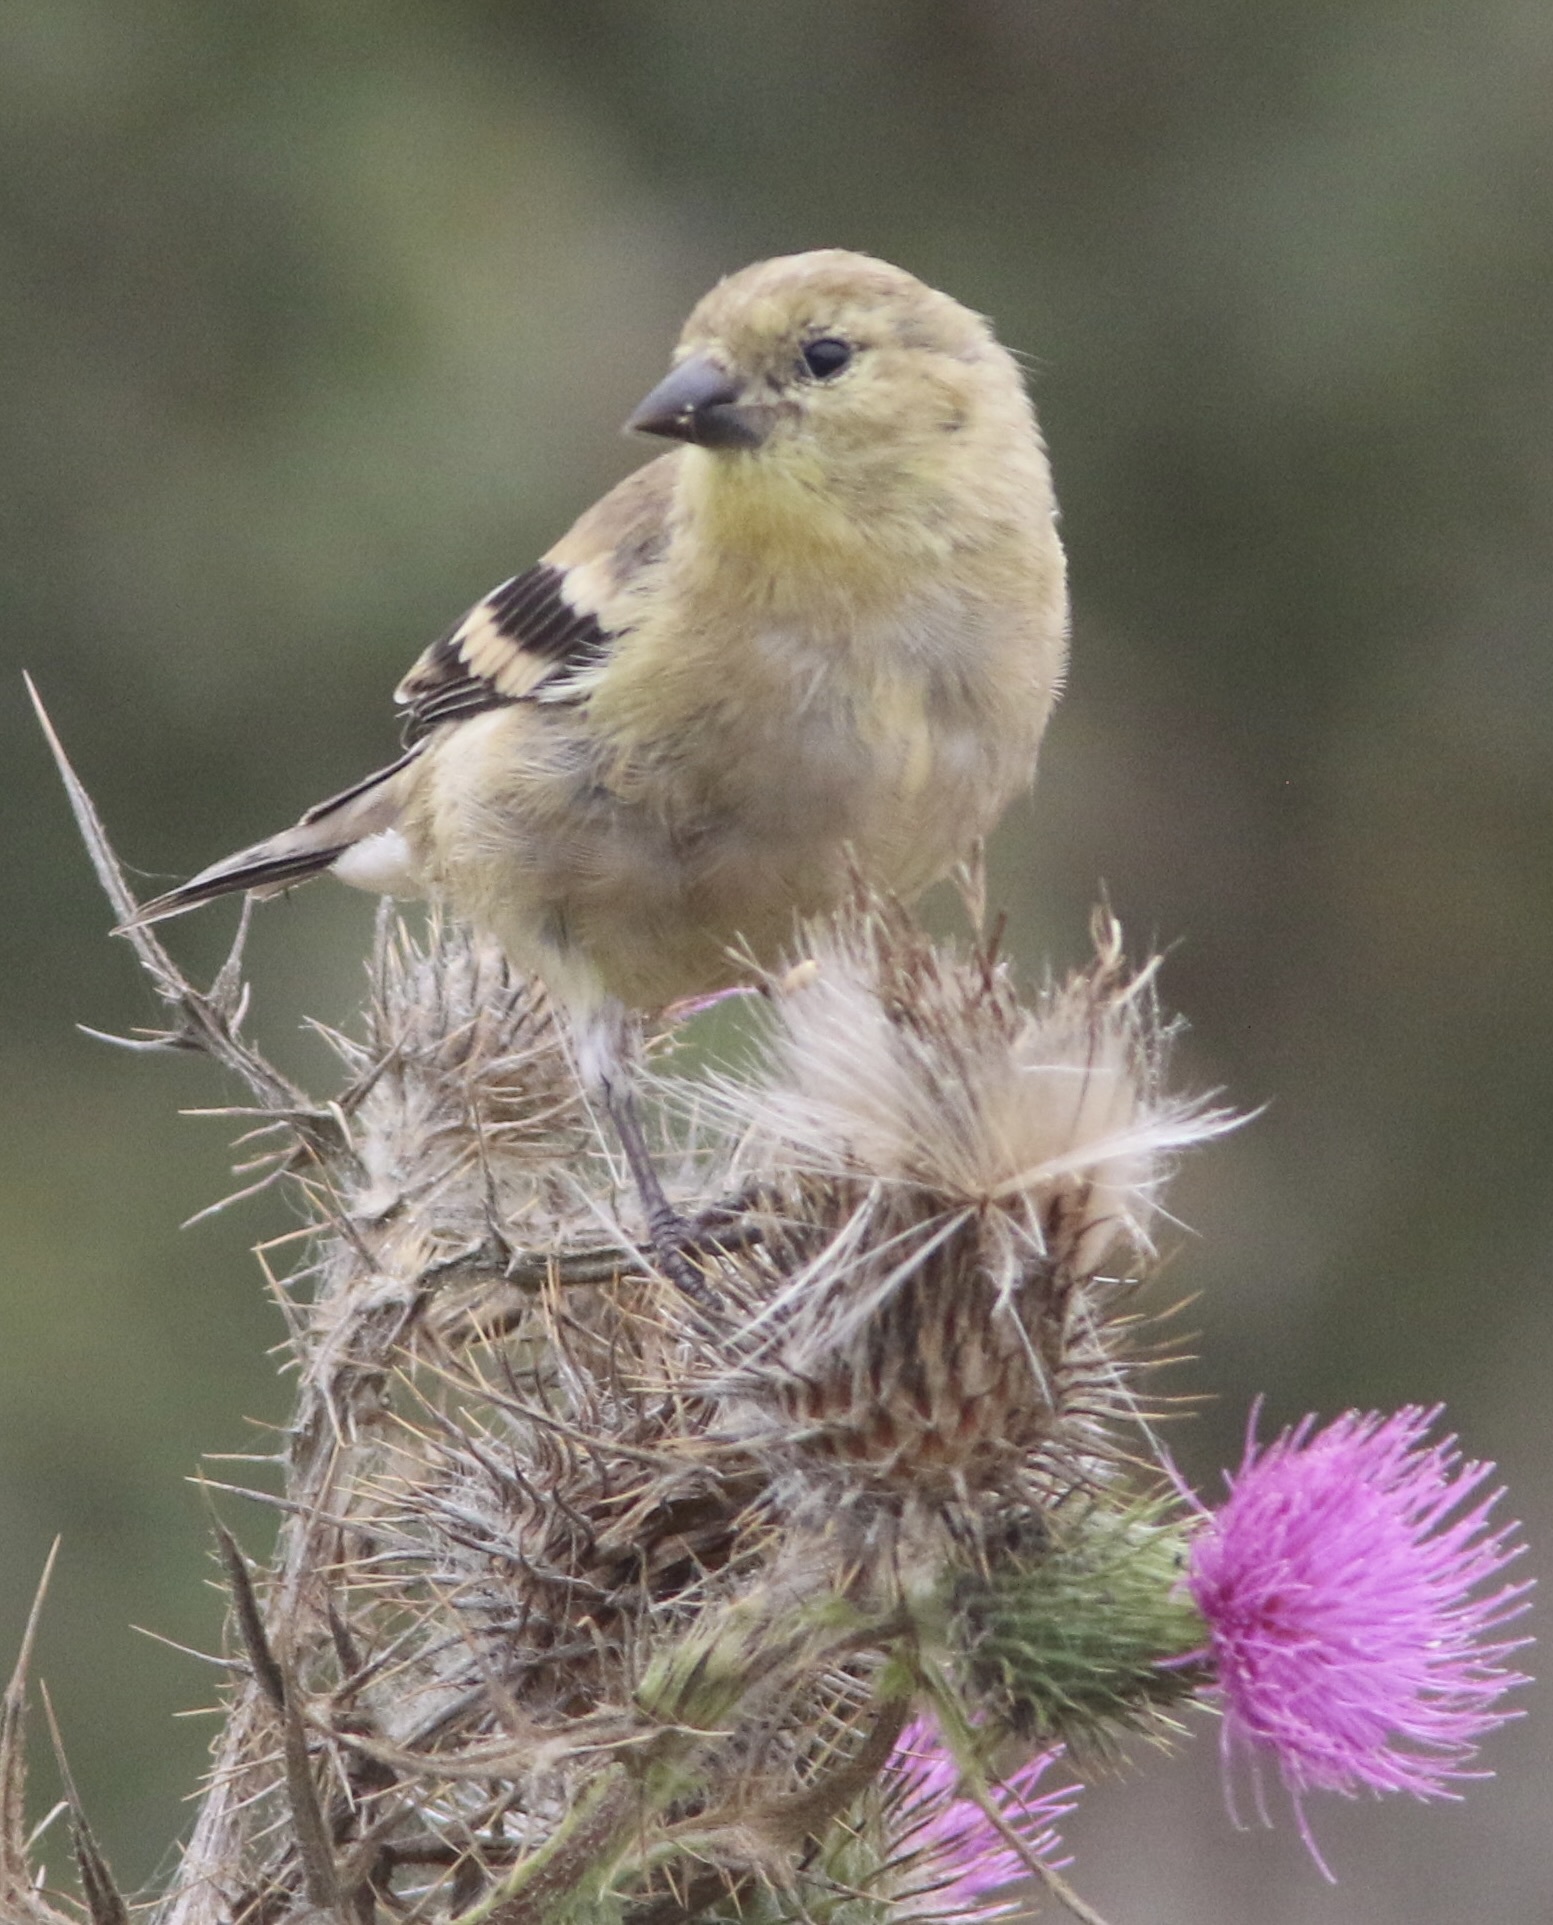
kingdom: Animalia
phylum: Chordata
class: Aves
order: Passeriformes
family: Fringillidae
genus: Spinus
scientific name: Spinus tristis
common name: American goldfinch
